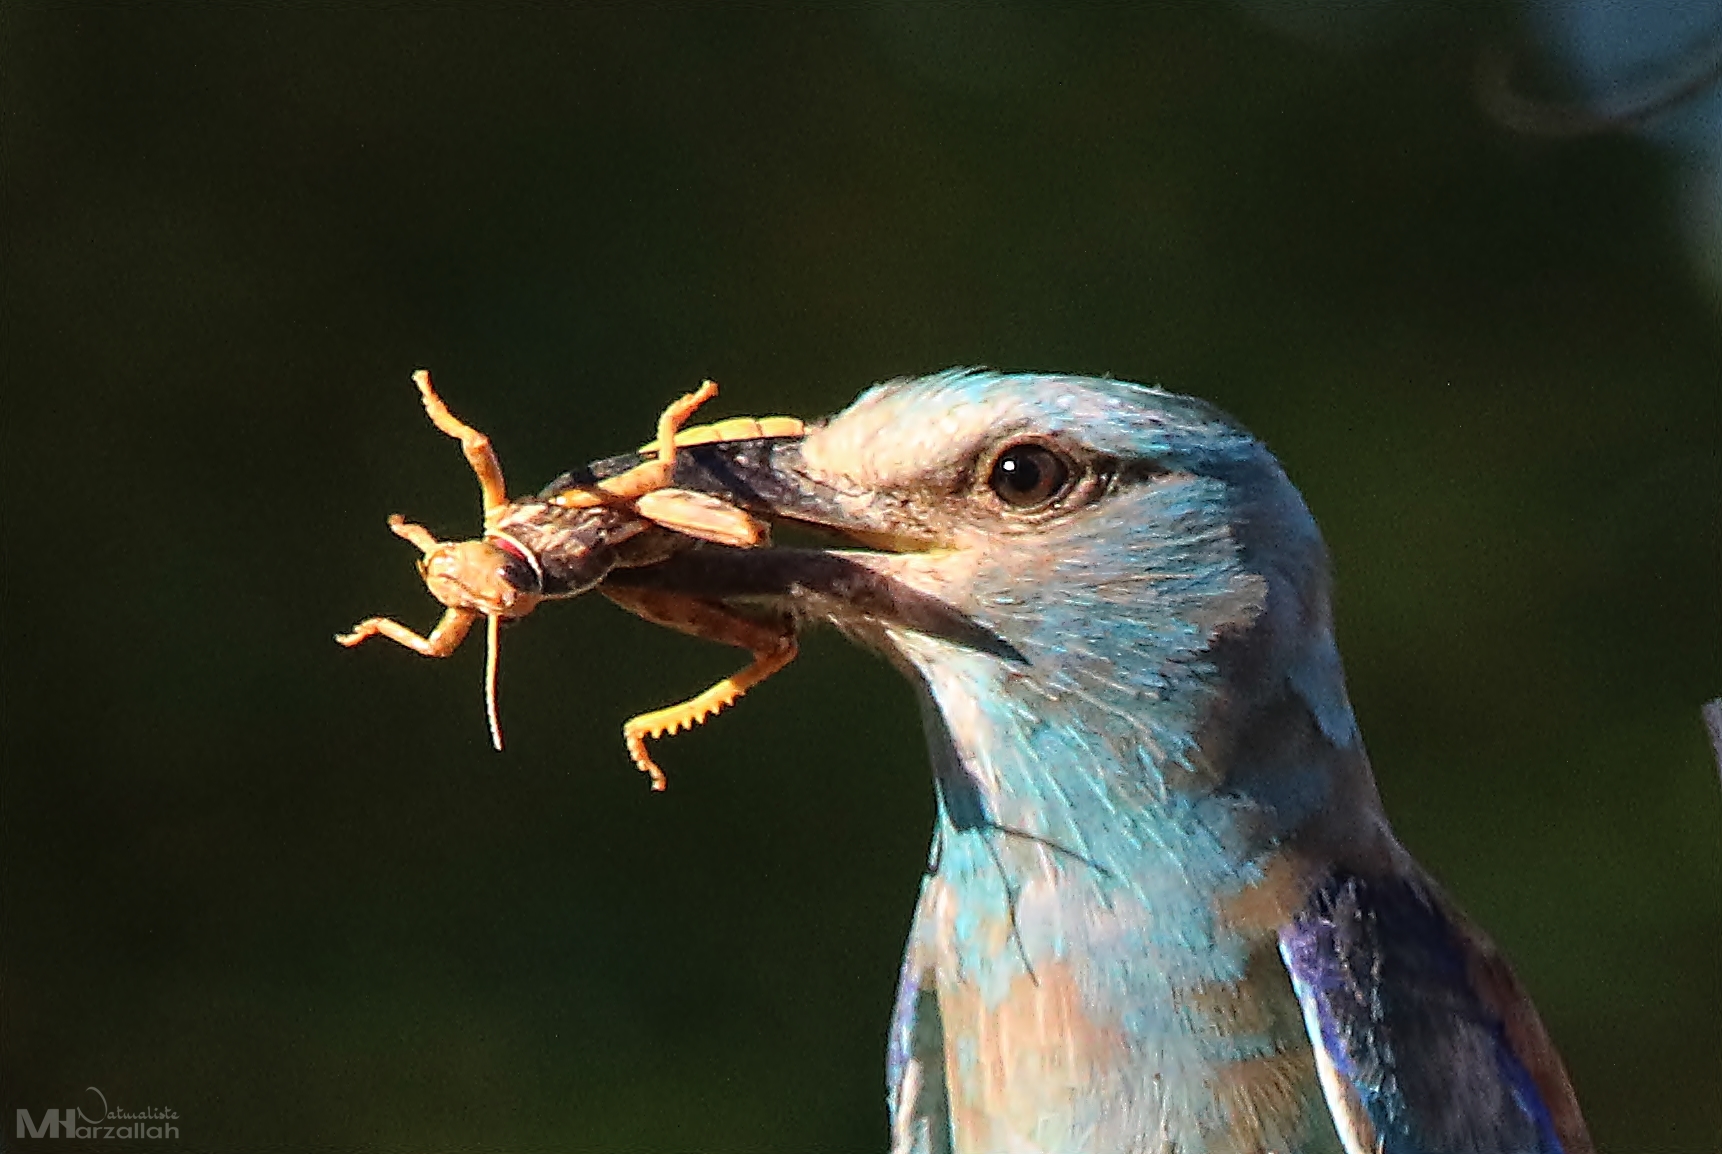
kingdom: Animalia
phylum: Chordata
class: Aves
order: Coraciiformes
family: Coraciidae
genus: Coracias
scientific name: Coracias garrulus
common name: European roller
